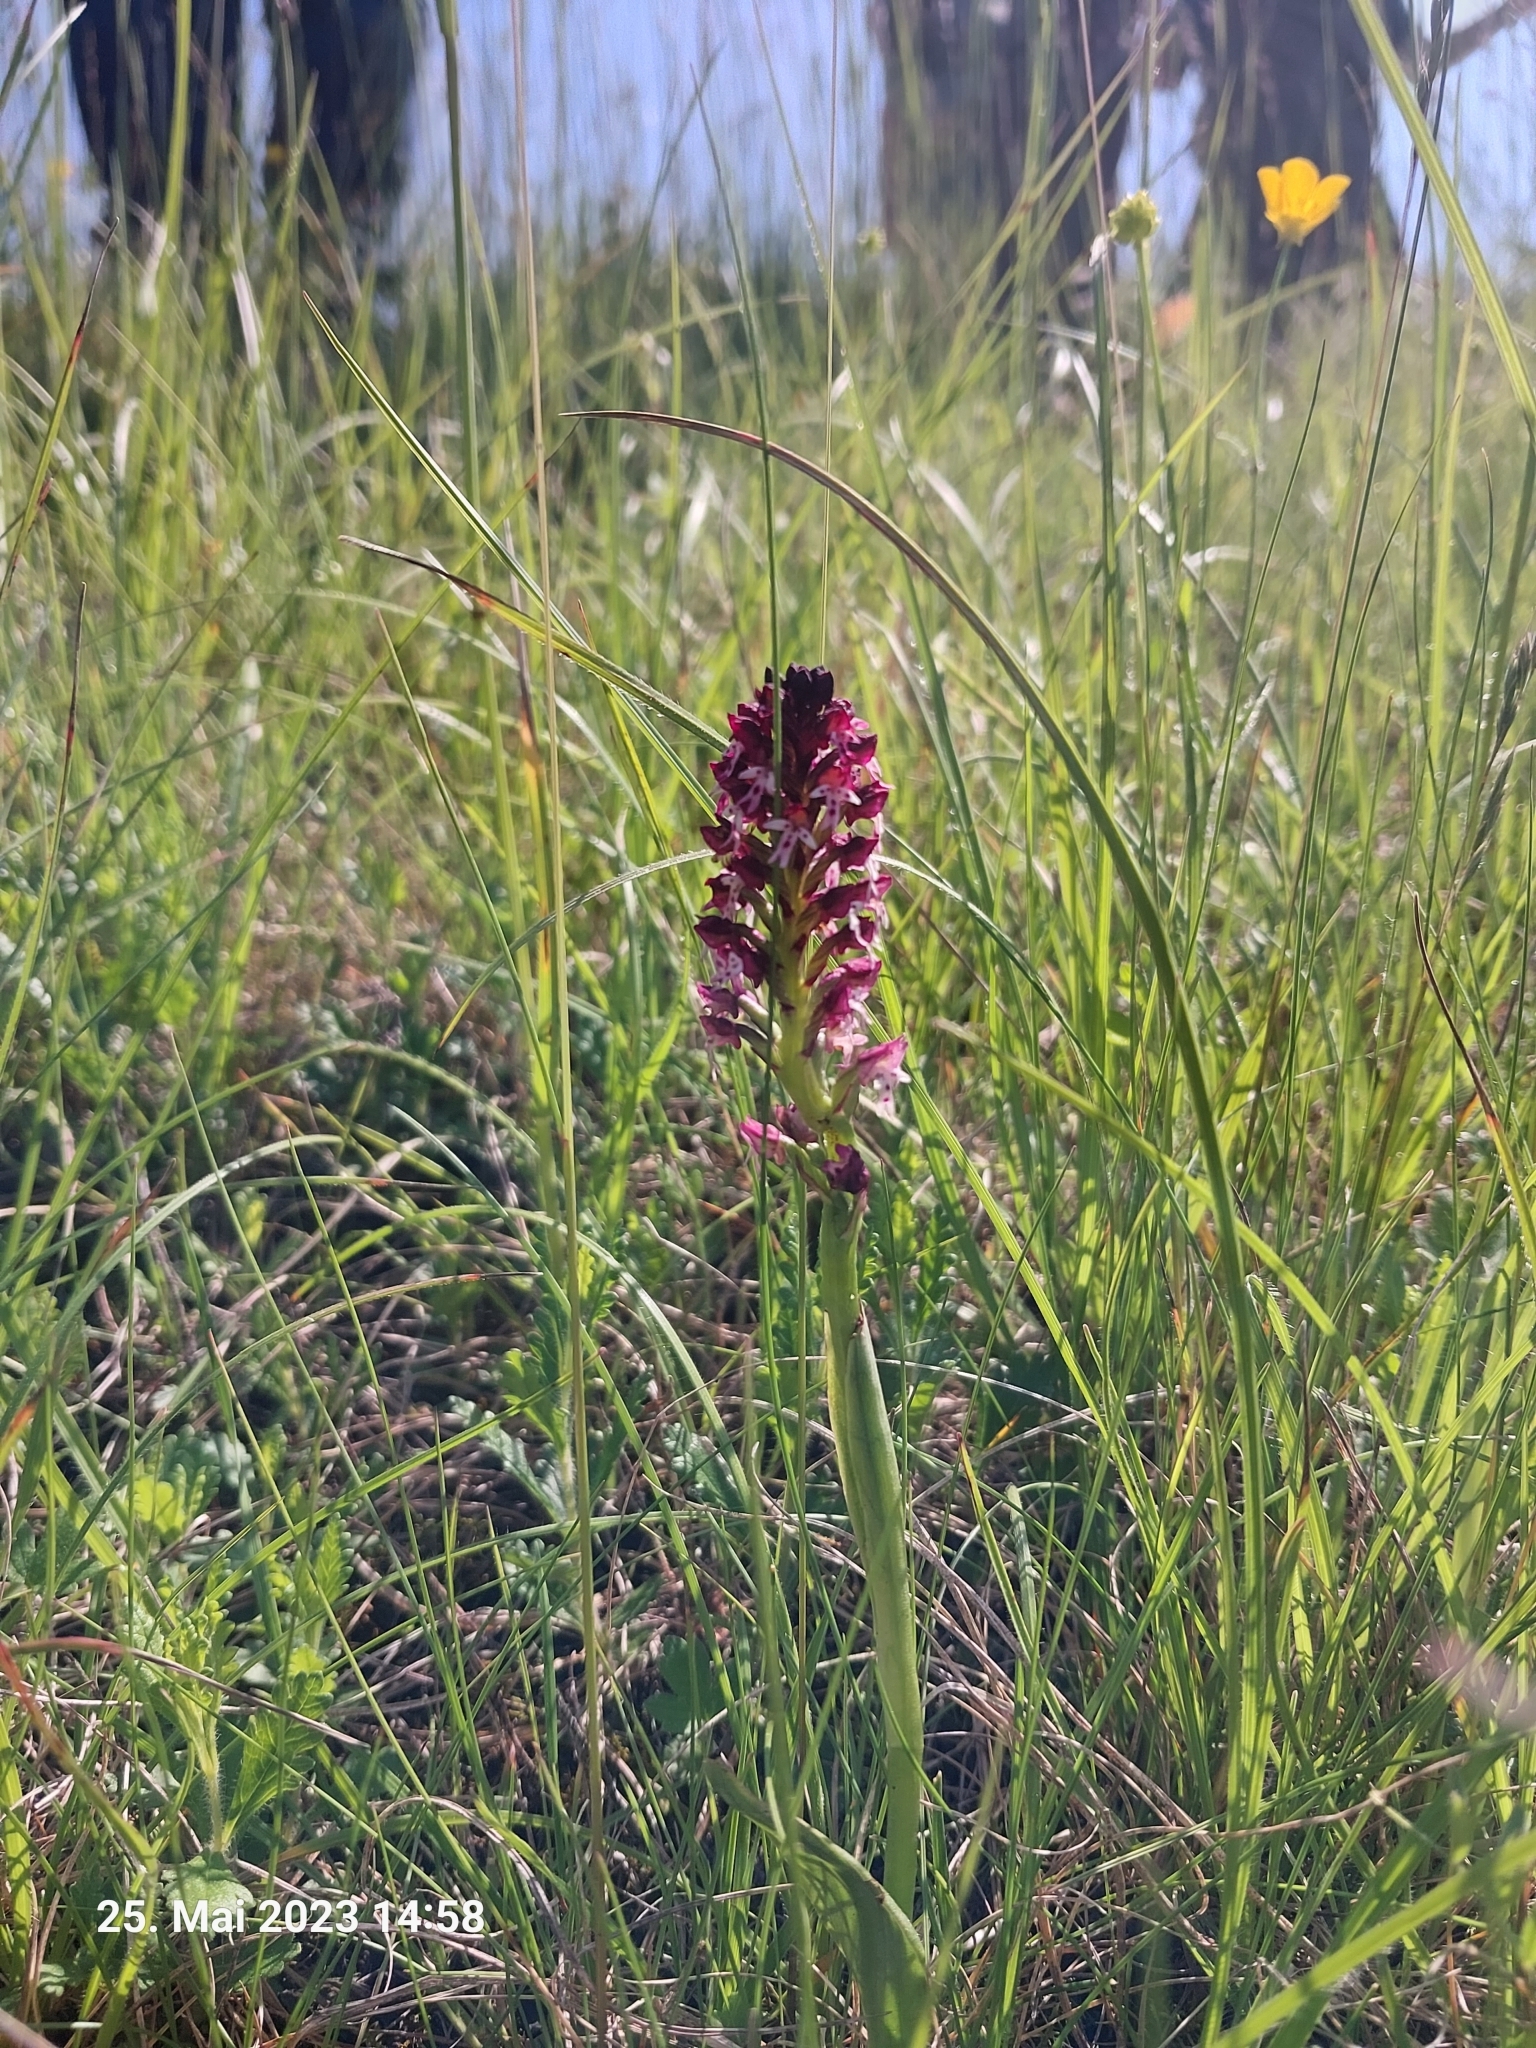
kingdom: Plantae
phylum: Tracheophyta
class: Liliopsida
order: Asparagales
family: Orchidaceae
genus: Neotinea
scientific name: Neotinea ustulata
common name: Burnt orchid
